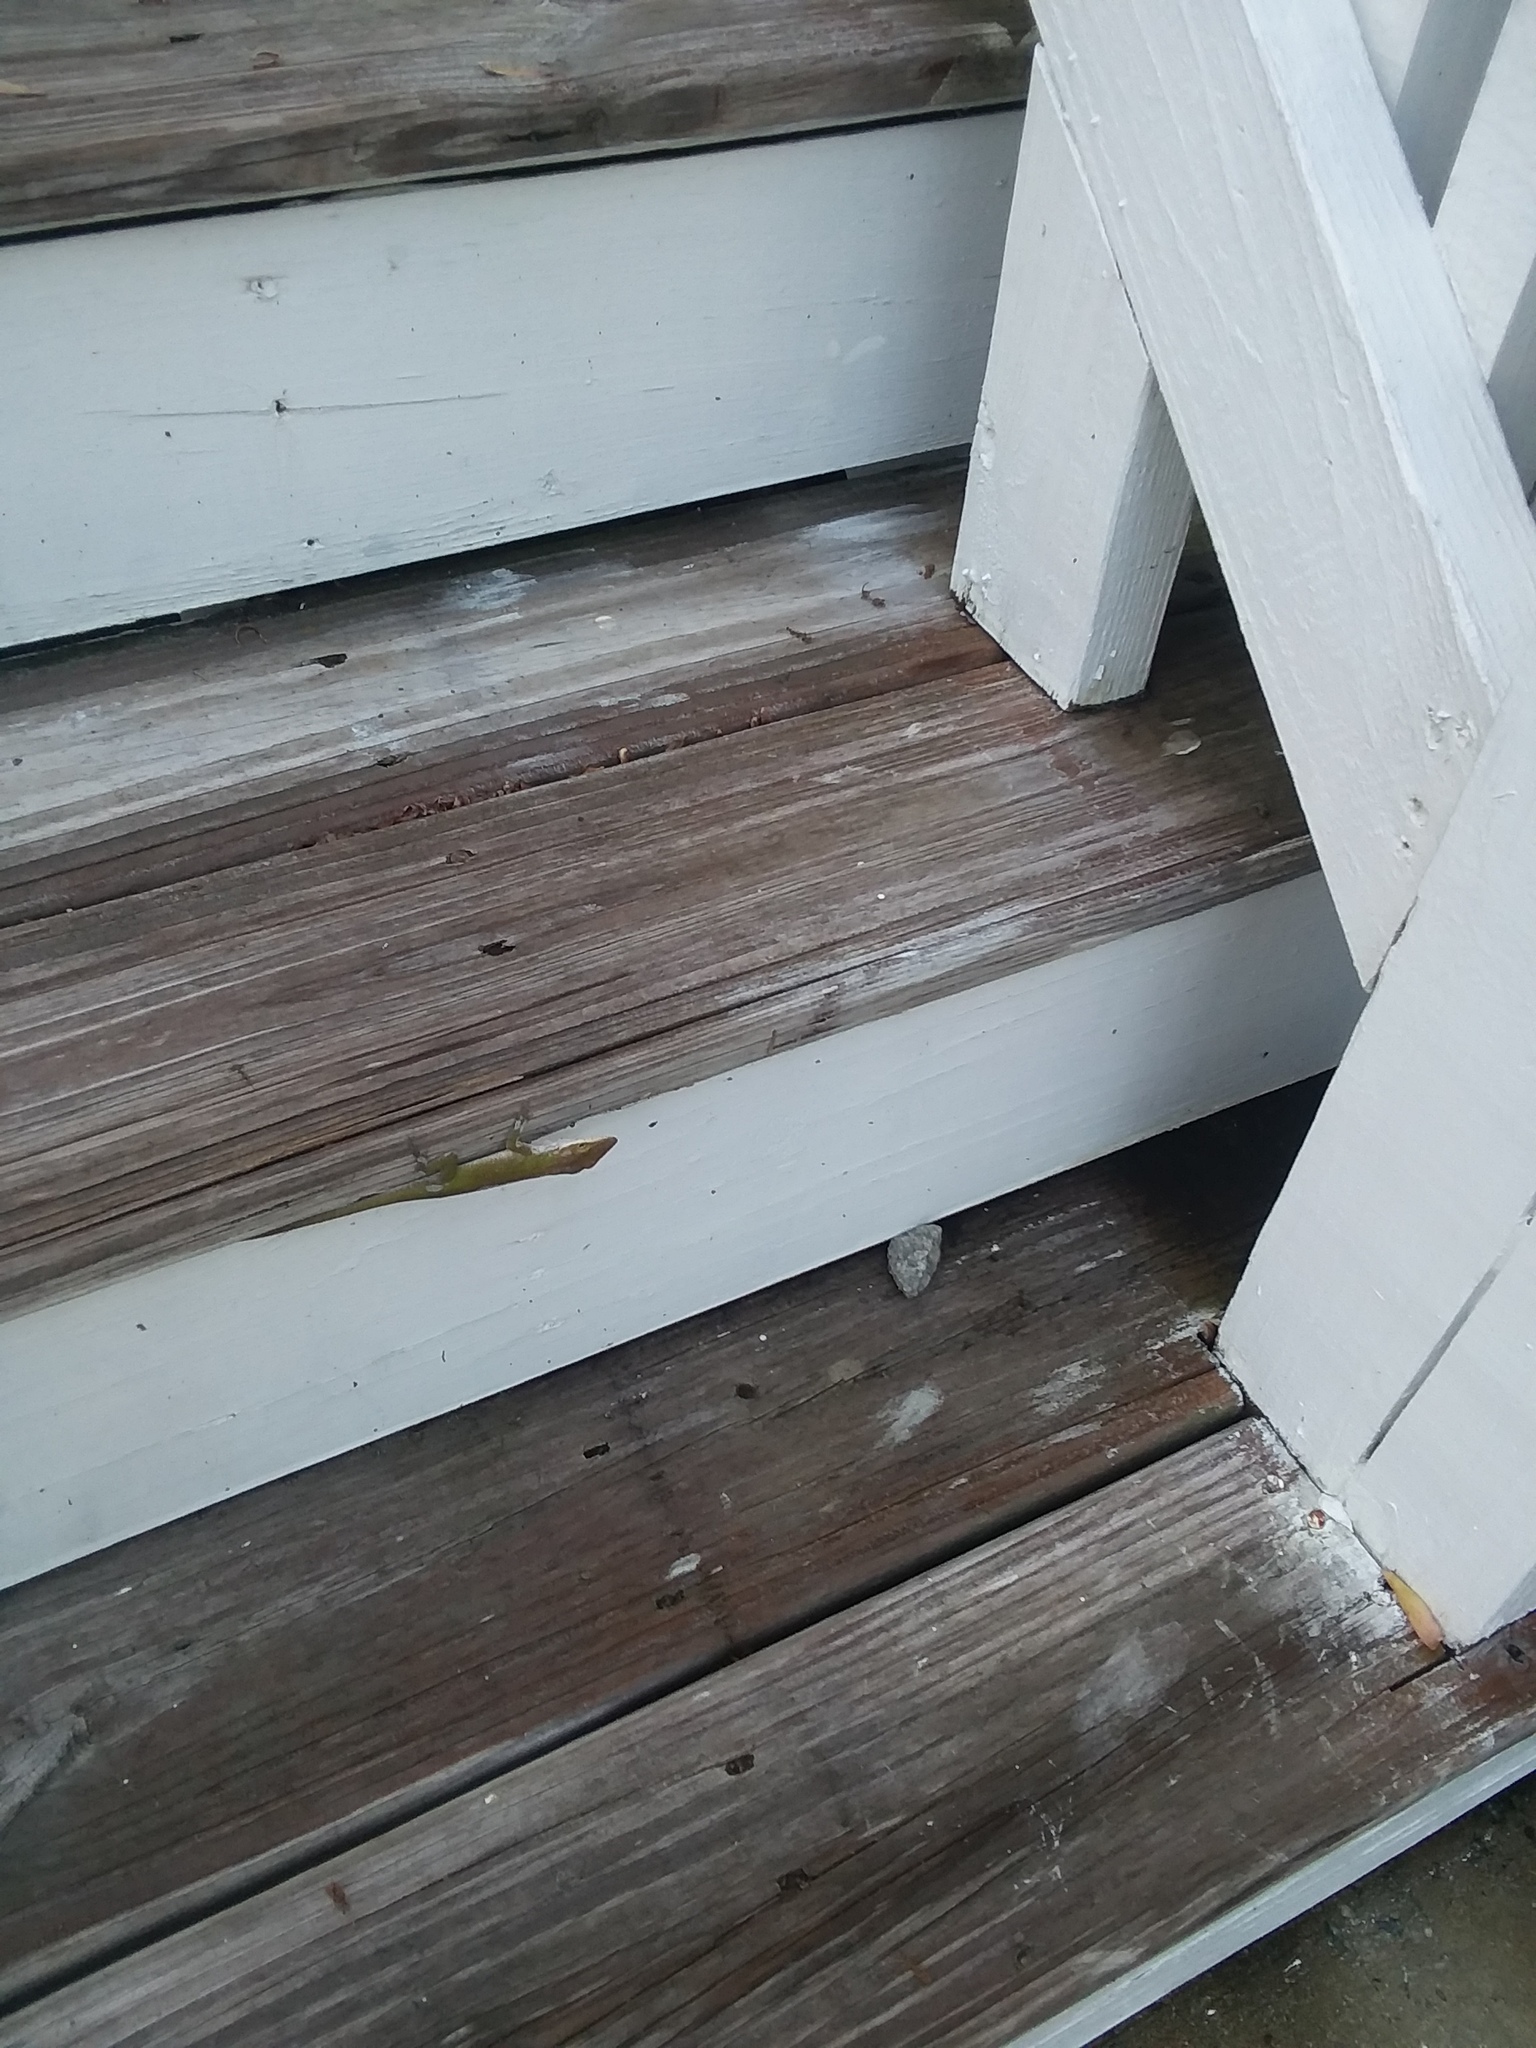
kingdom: Animalia
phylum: Chordata
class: Squamata
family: Dactyloidae
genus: Anolis
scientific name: Anolis carolinensis
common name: Green anole
